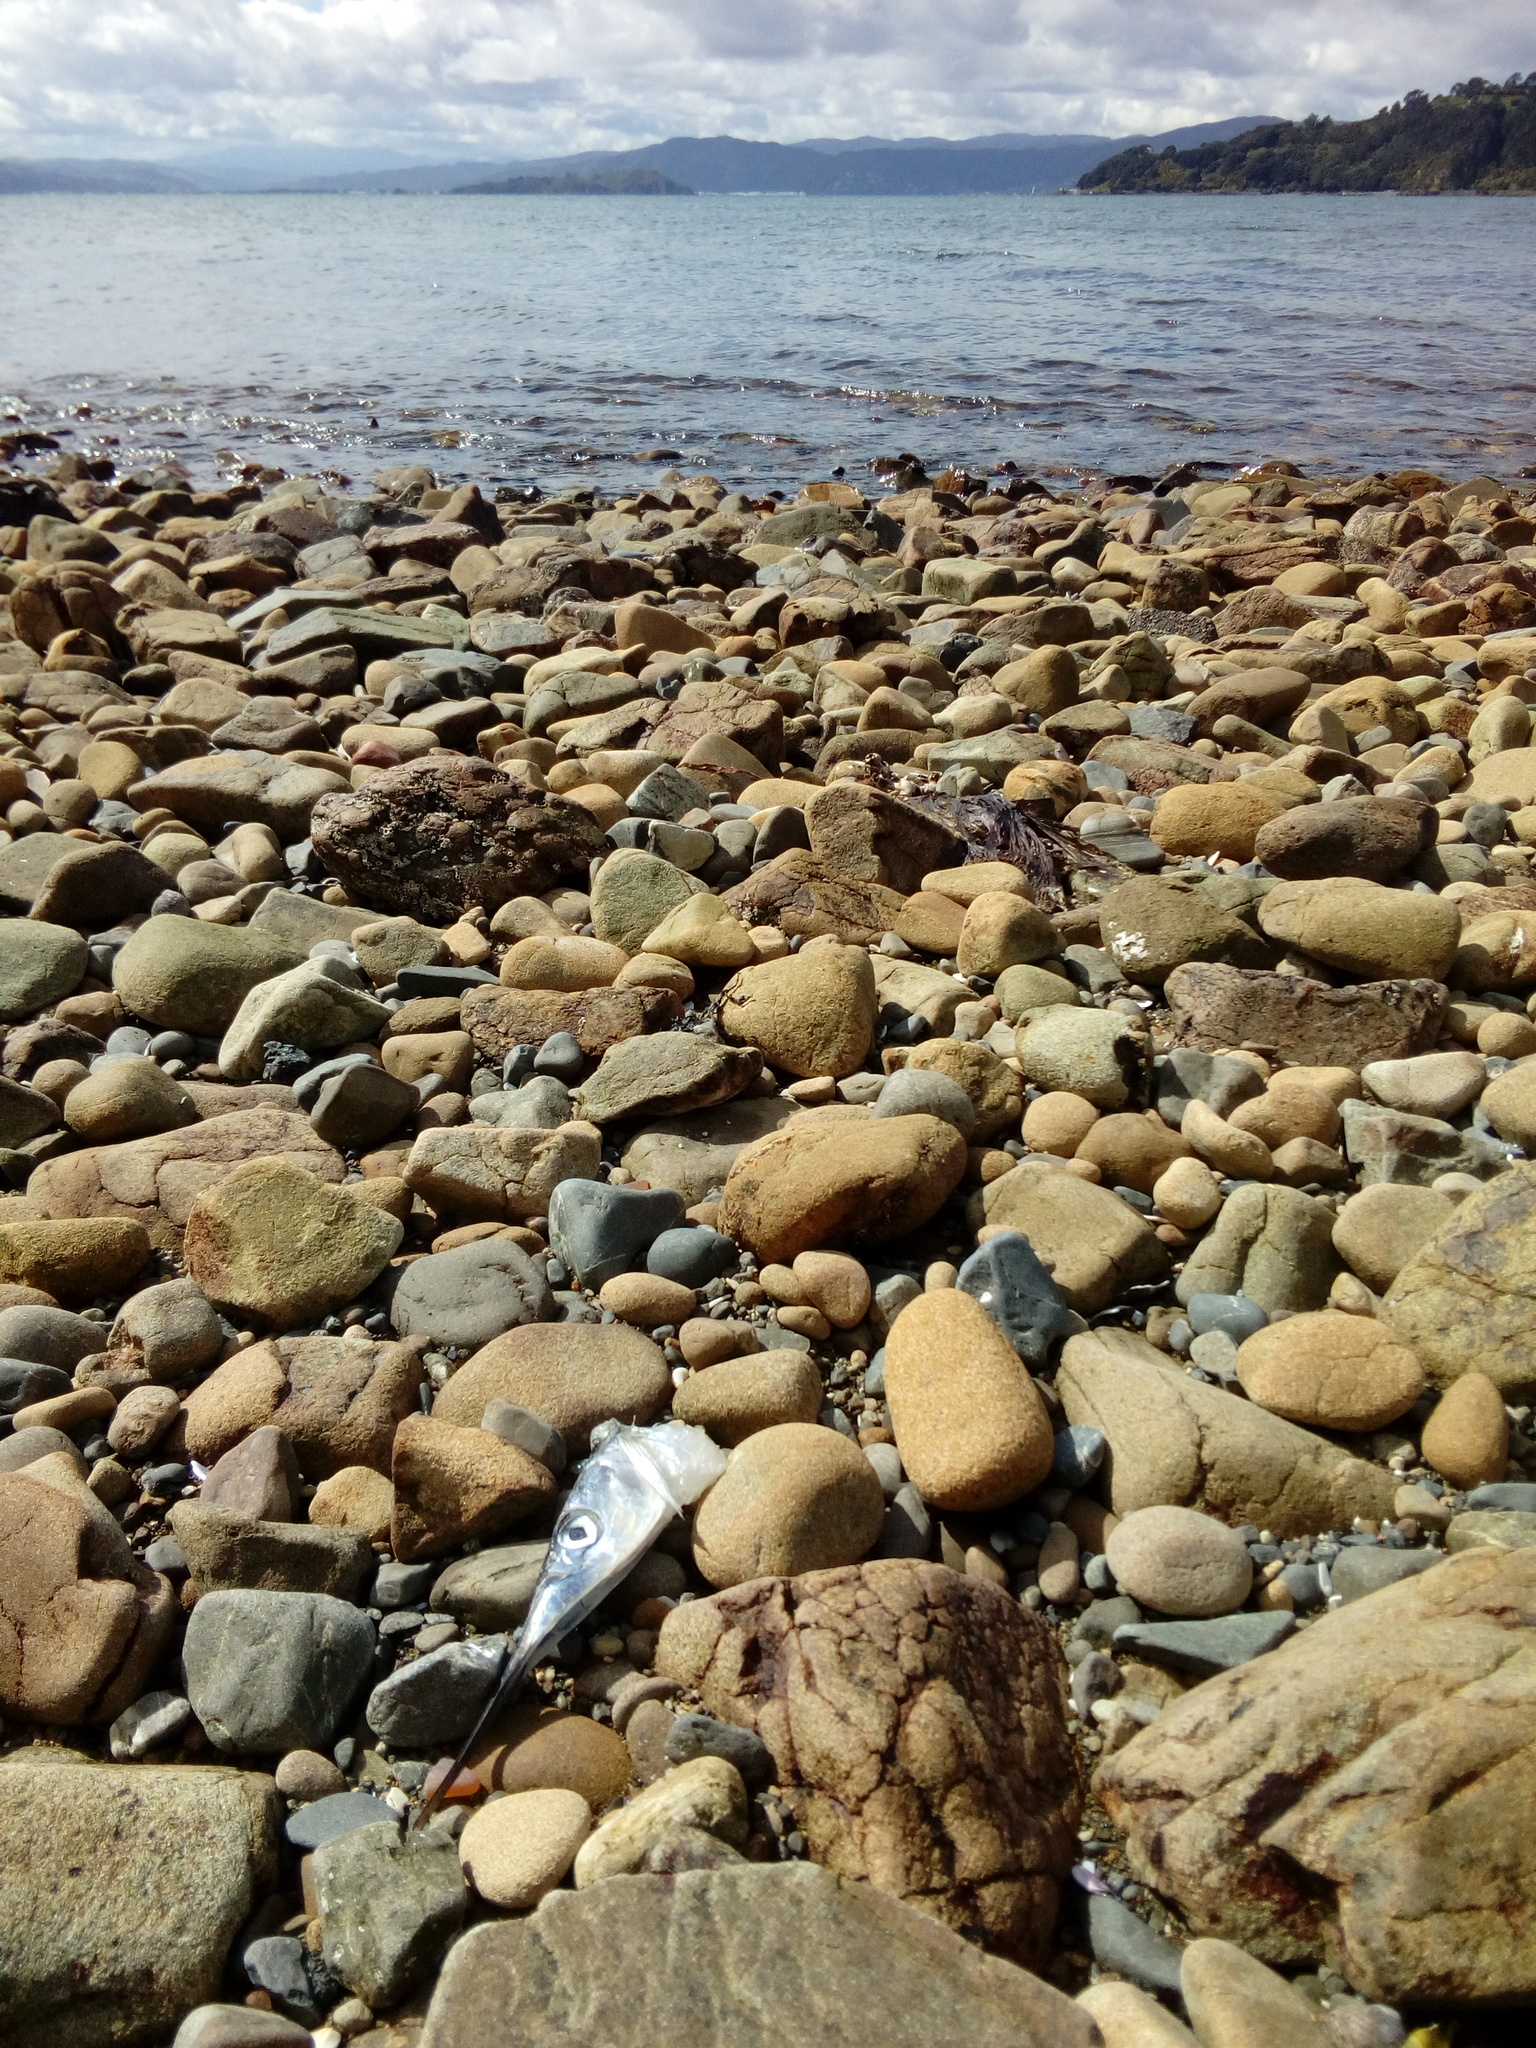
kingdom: Animalia
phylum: Chordata
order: Beloniformes
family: Hemiramphidae
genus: Hyporhamphus
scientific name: Hyporhamphus ihi
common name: Garfish
